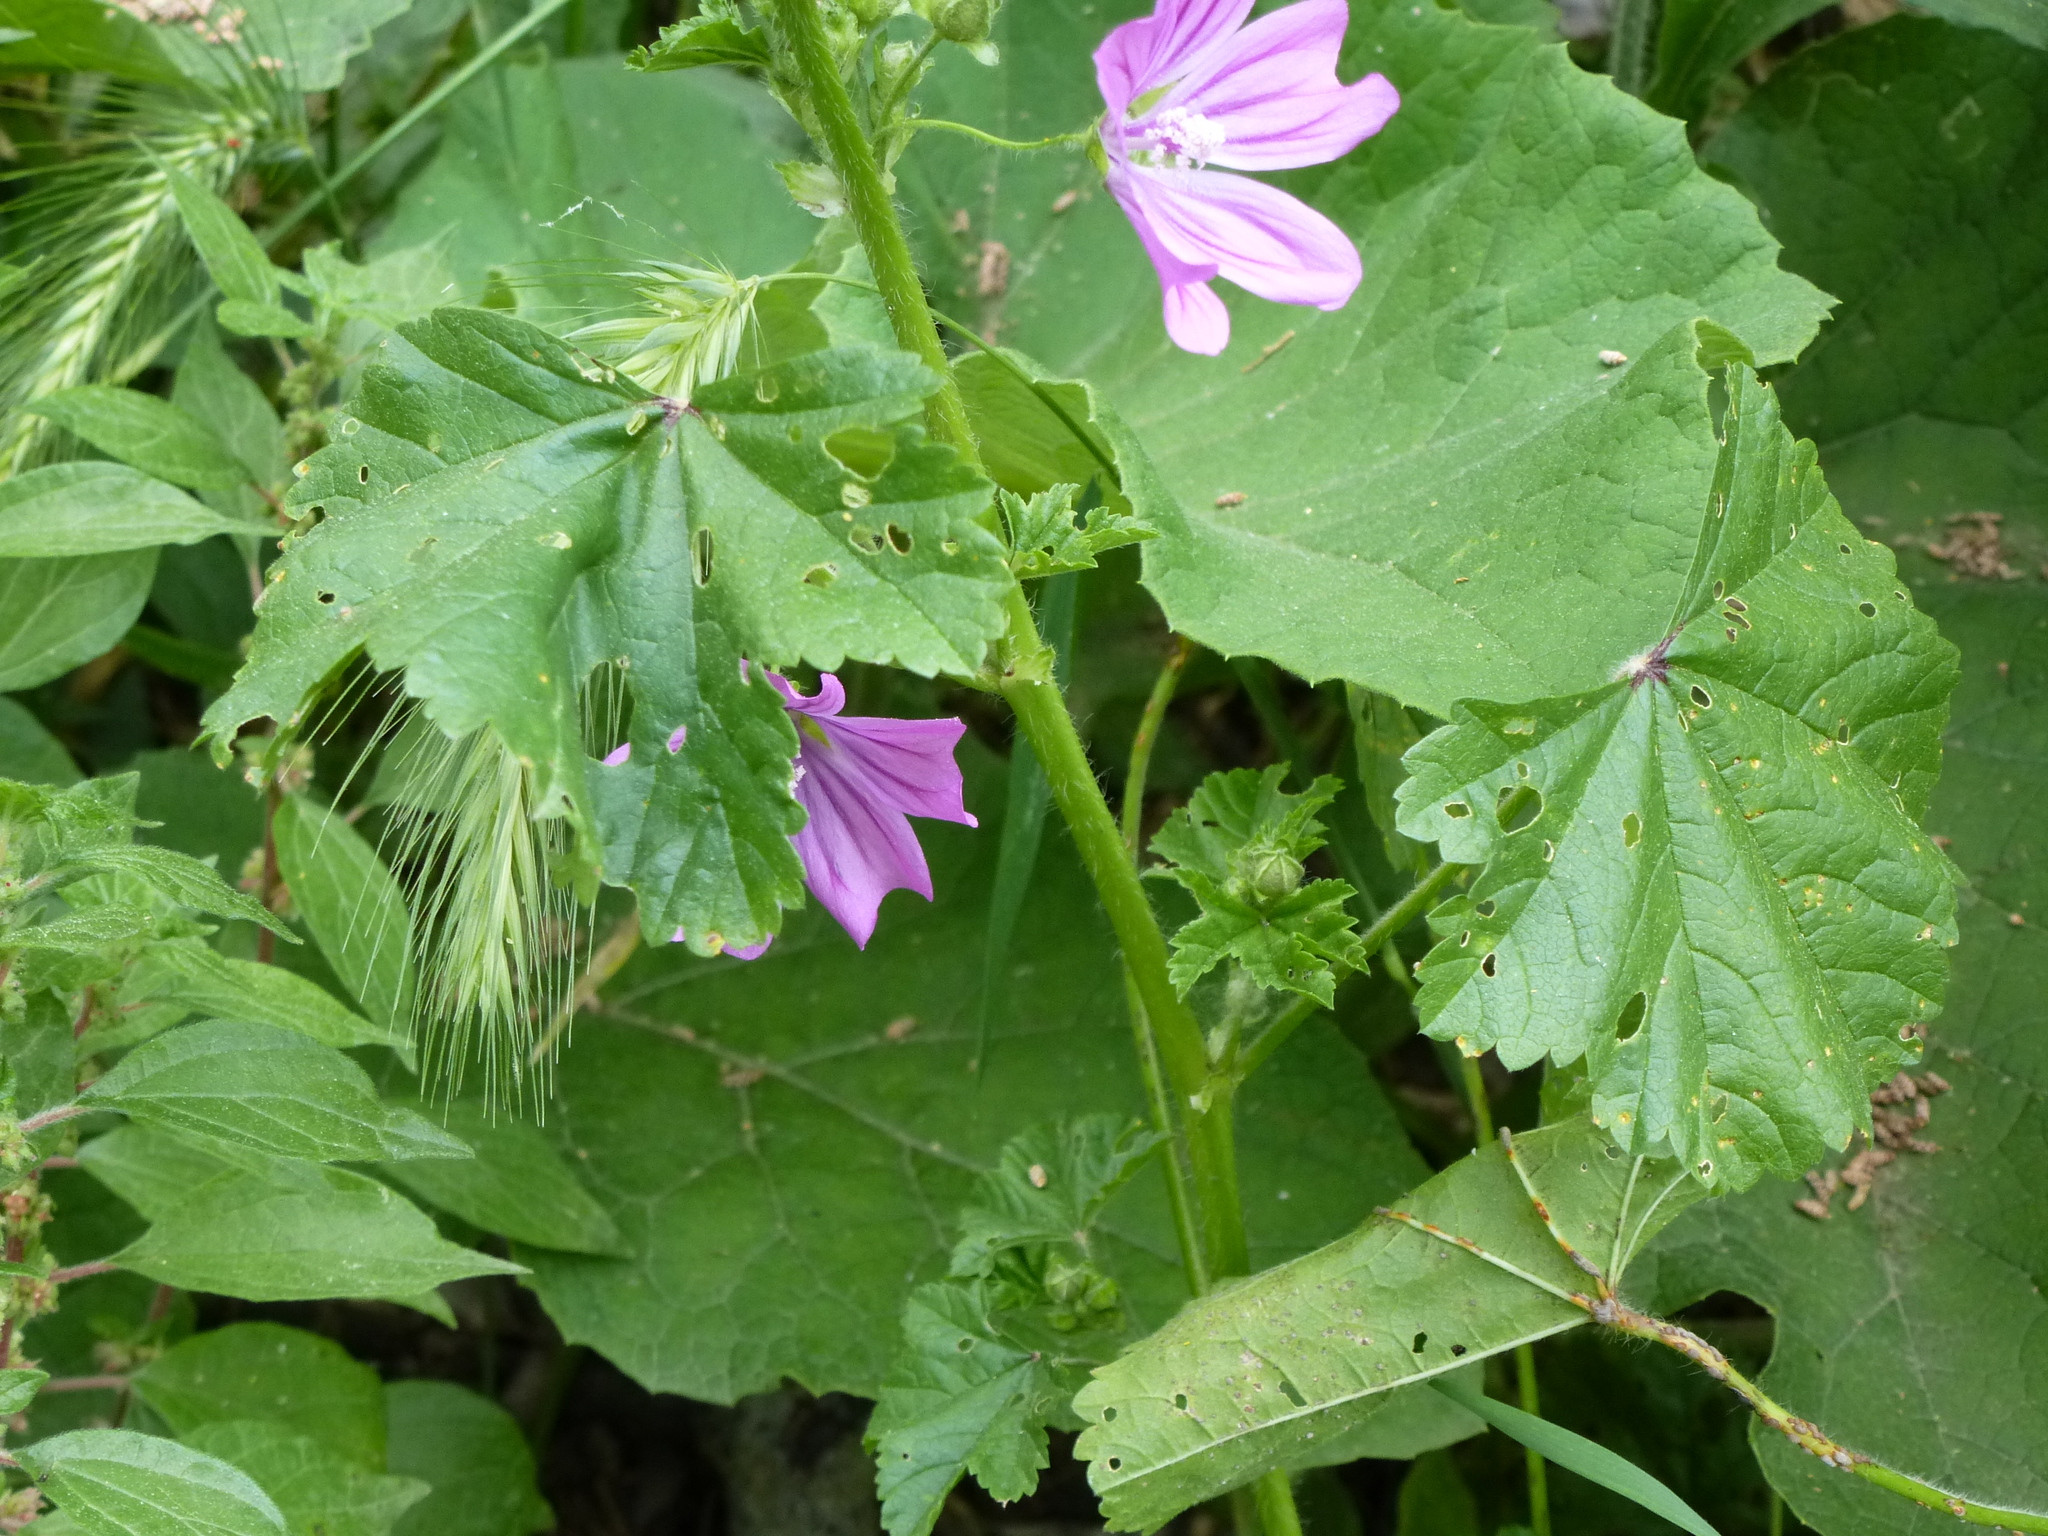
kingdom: Plantae
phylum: Tracheophyta
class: Magnoliopsida
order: Malvales
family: Malvaceae
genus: Malva
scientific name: Malva sylvestris
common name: Common mallow
